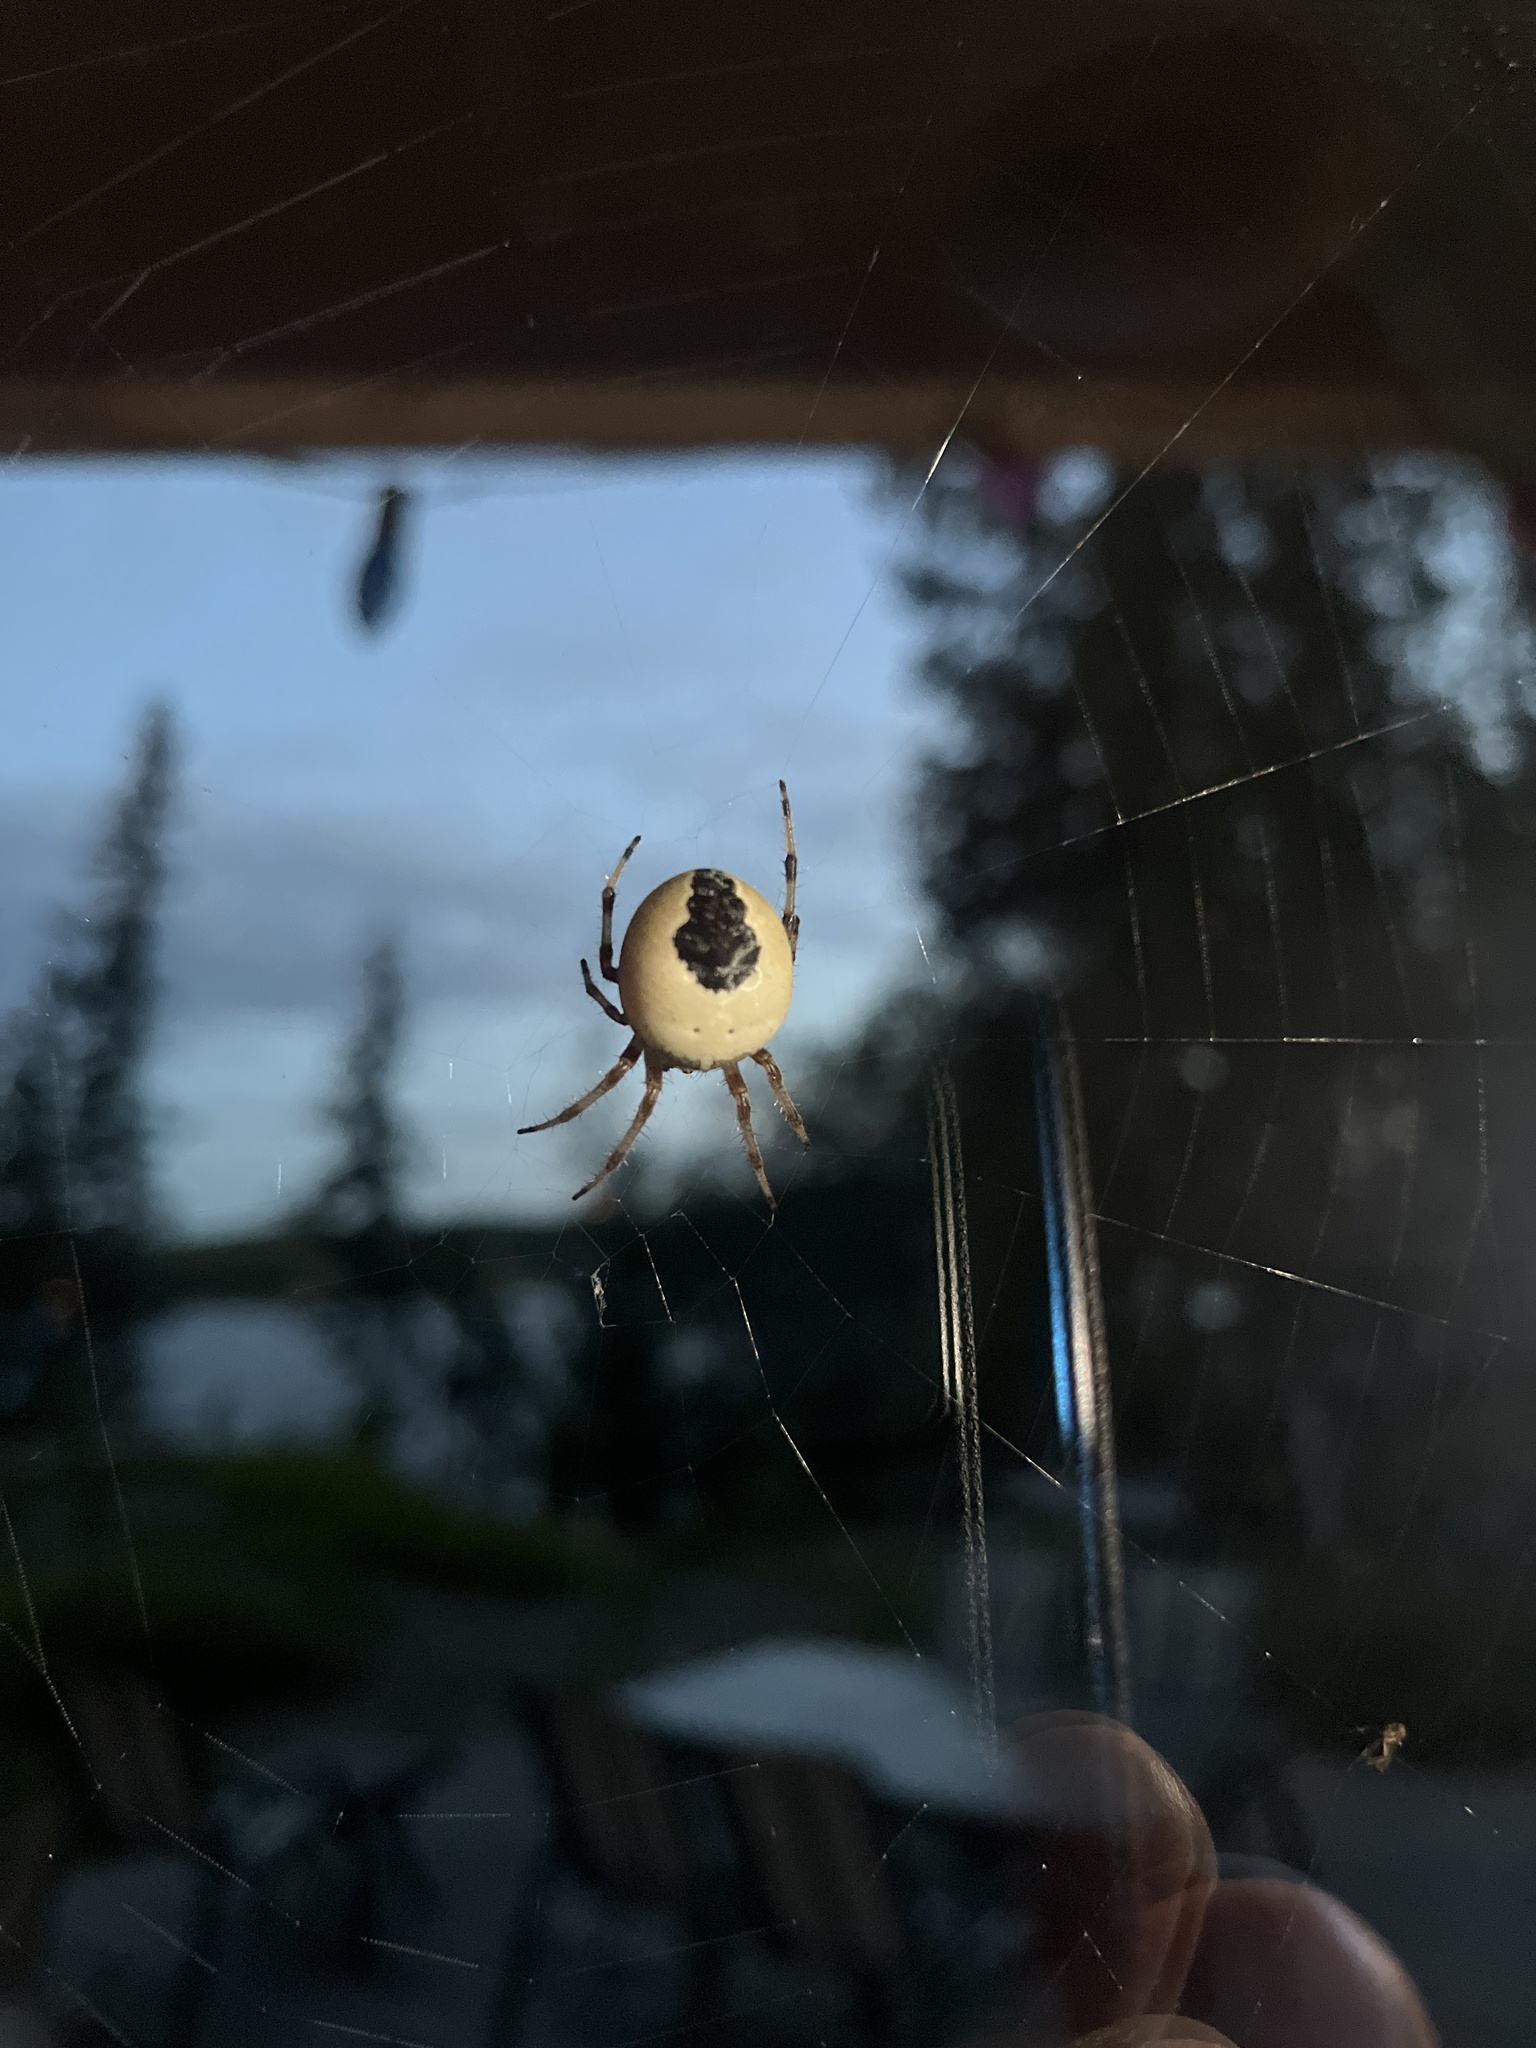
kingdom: Animalia
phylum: Arthropoda
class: Arachnida
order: Araneae
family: Araneidae
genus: Araneus
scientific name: Araneus marmoreus
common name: Marbled orbweaver
